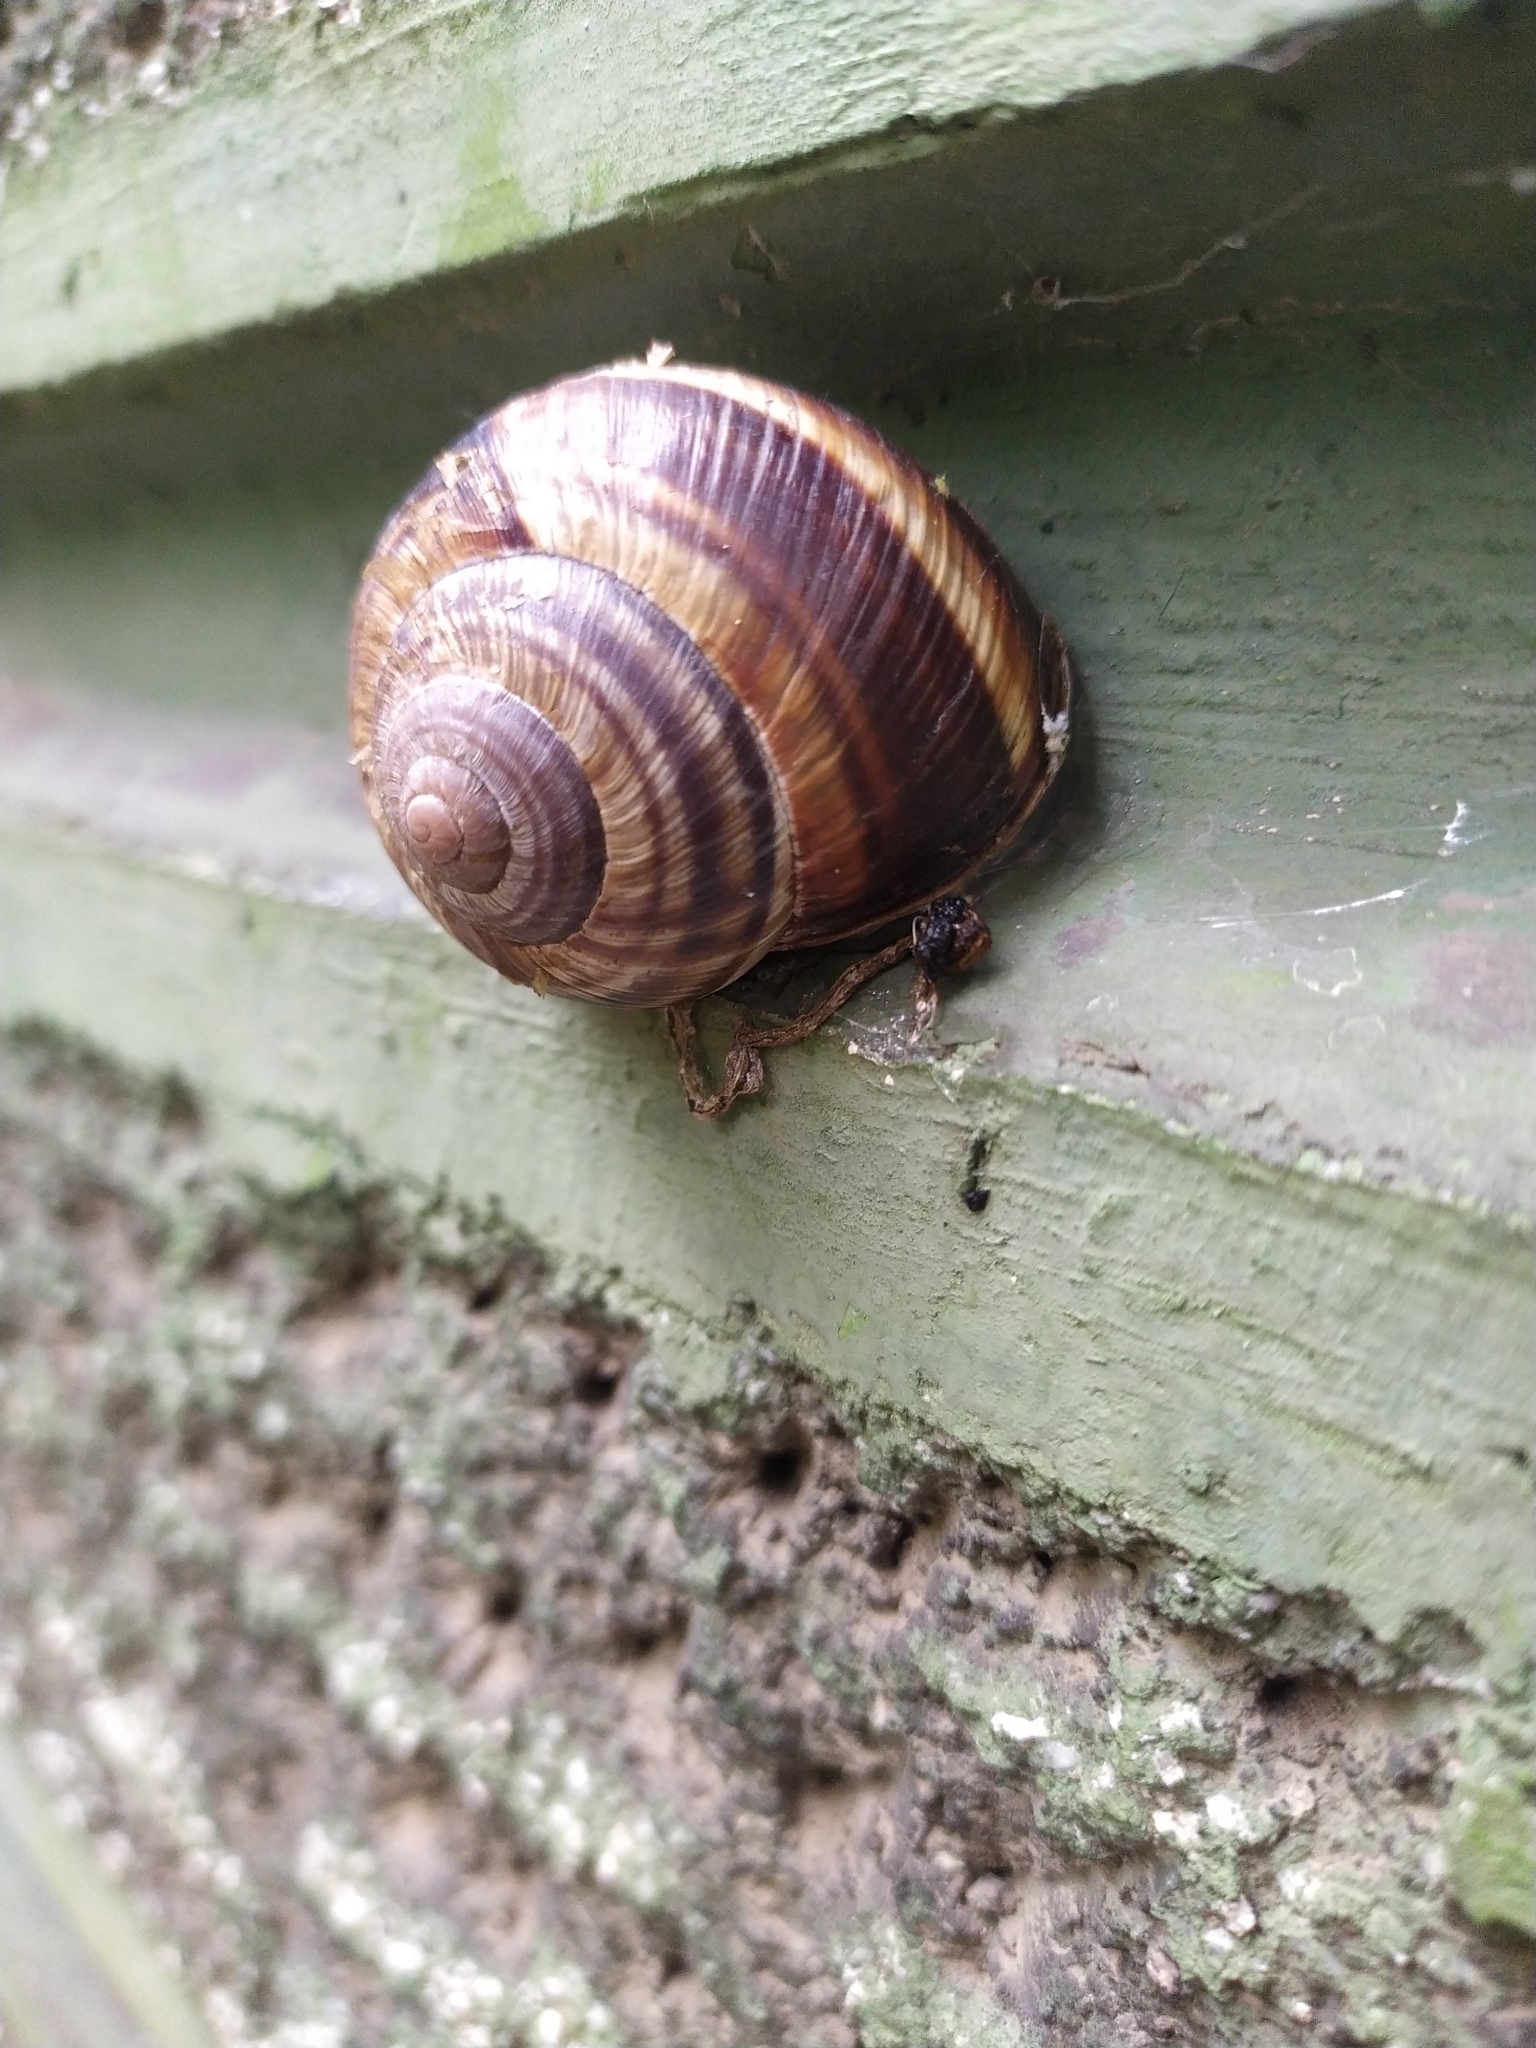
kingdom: Animalia
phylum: Mollusca
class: Gastropoda
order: Stylommatophora
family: Helicidae
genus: Helix
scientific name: Helix lucorum
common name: Turkish snail
